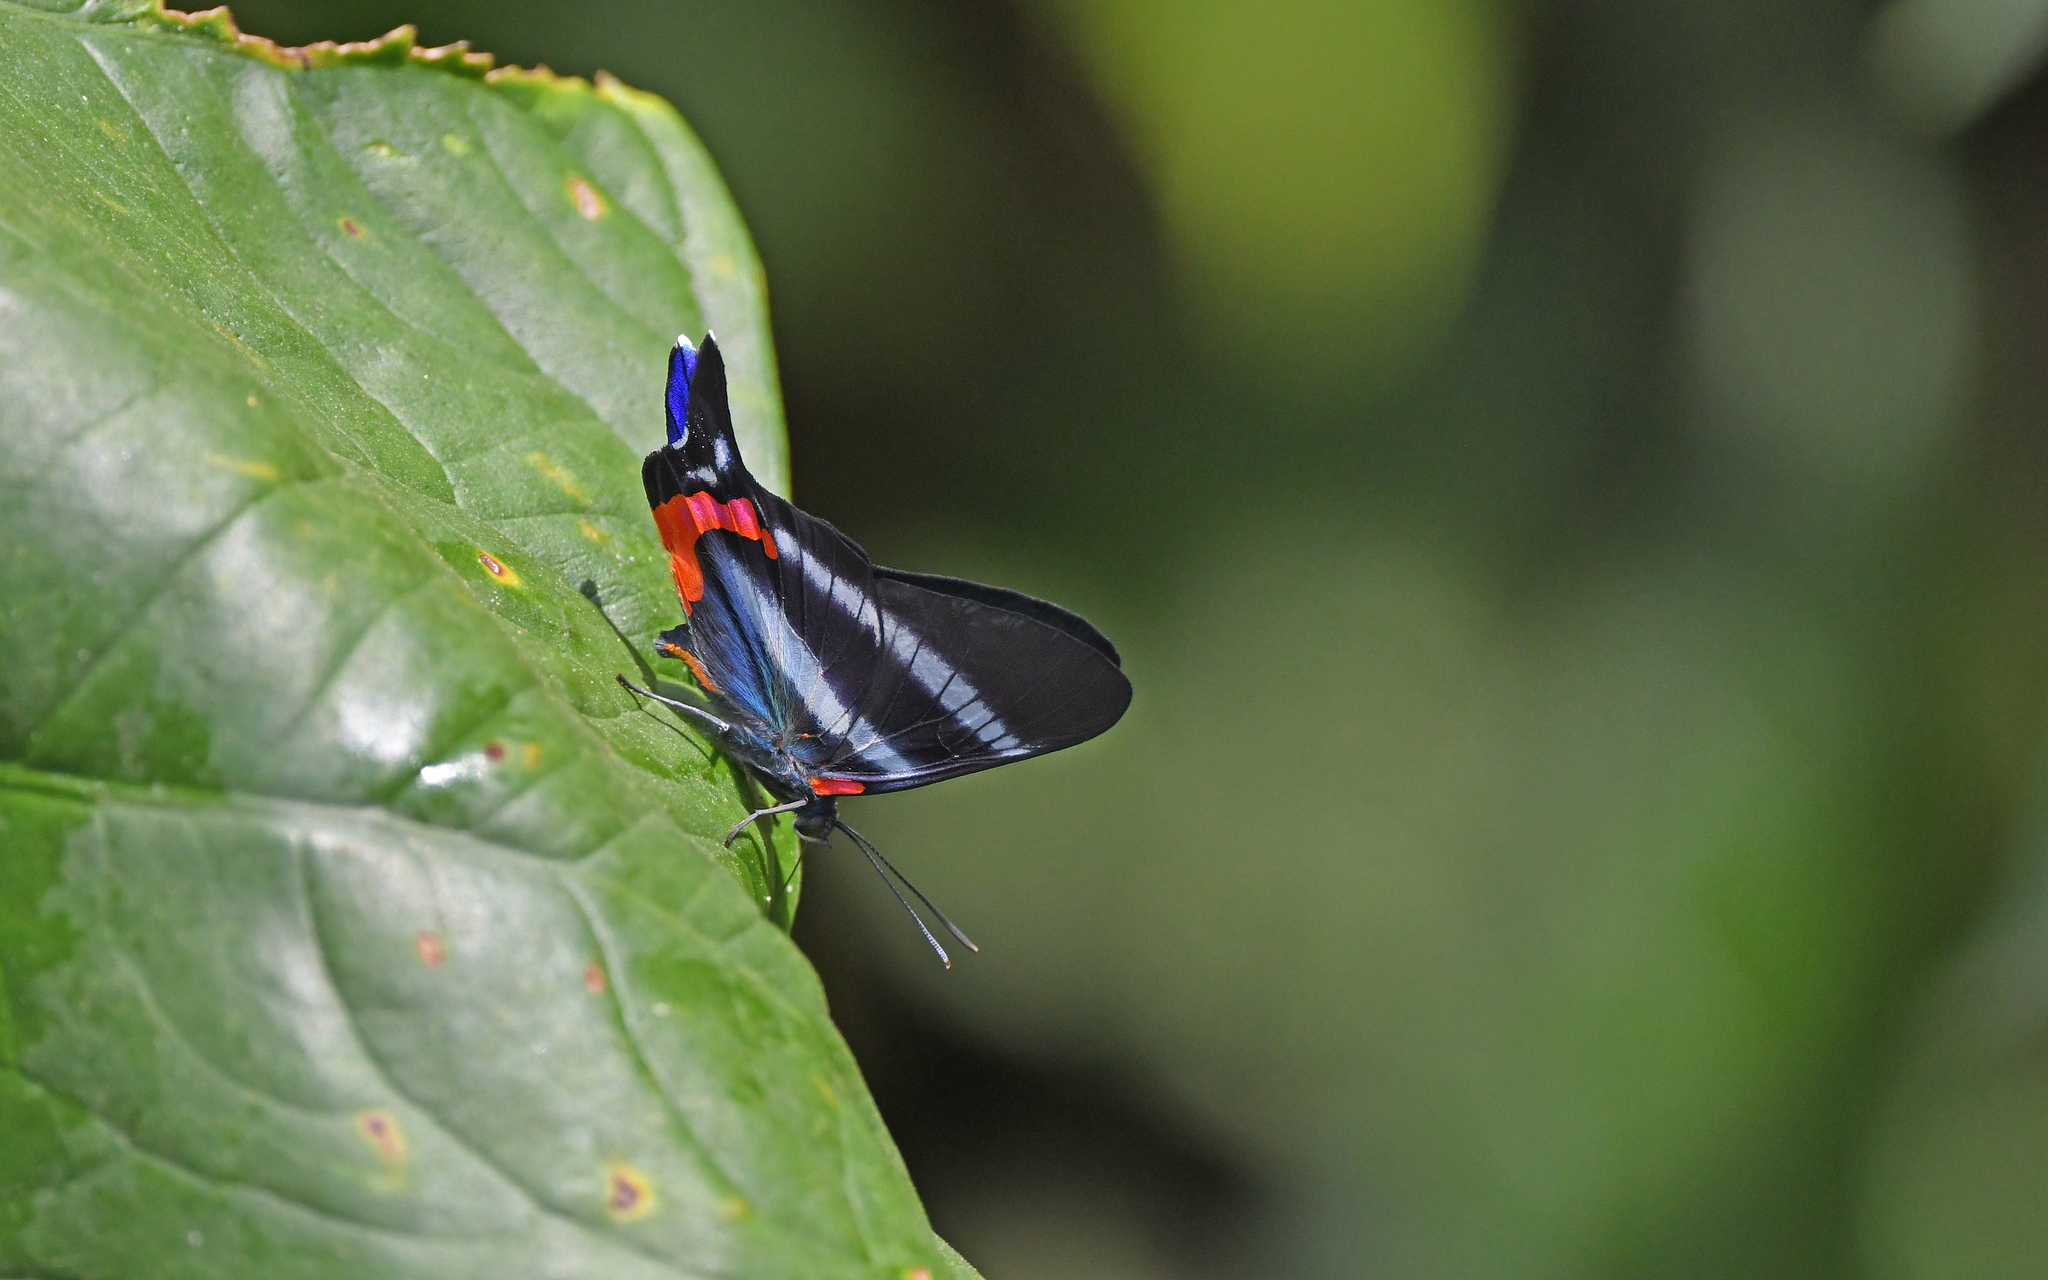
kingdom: Animalia
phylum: Arthropoda
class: Insecta
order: Lepidoptera
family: Riodinidae
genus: Rhetus
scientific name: Rhetus dysonii
